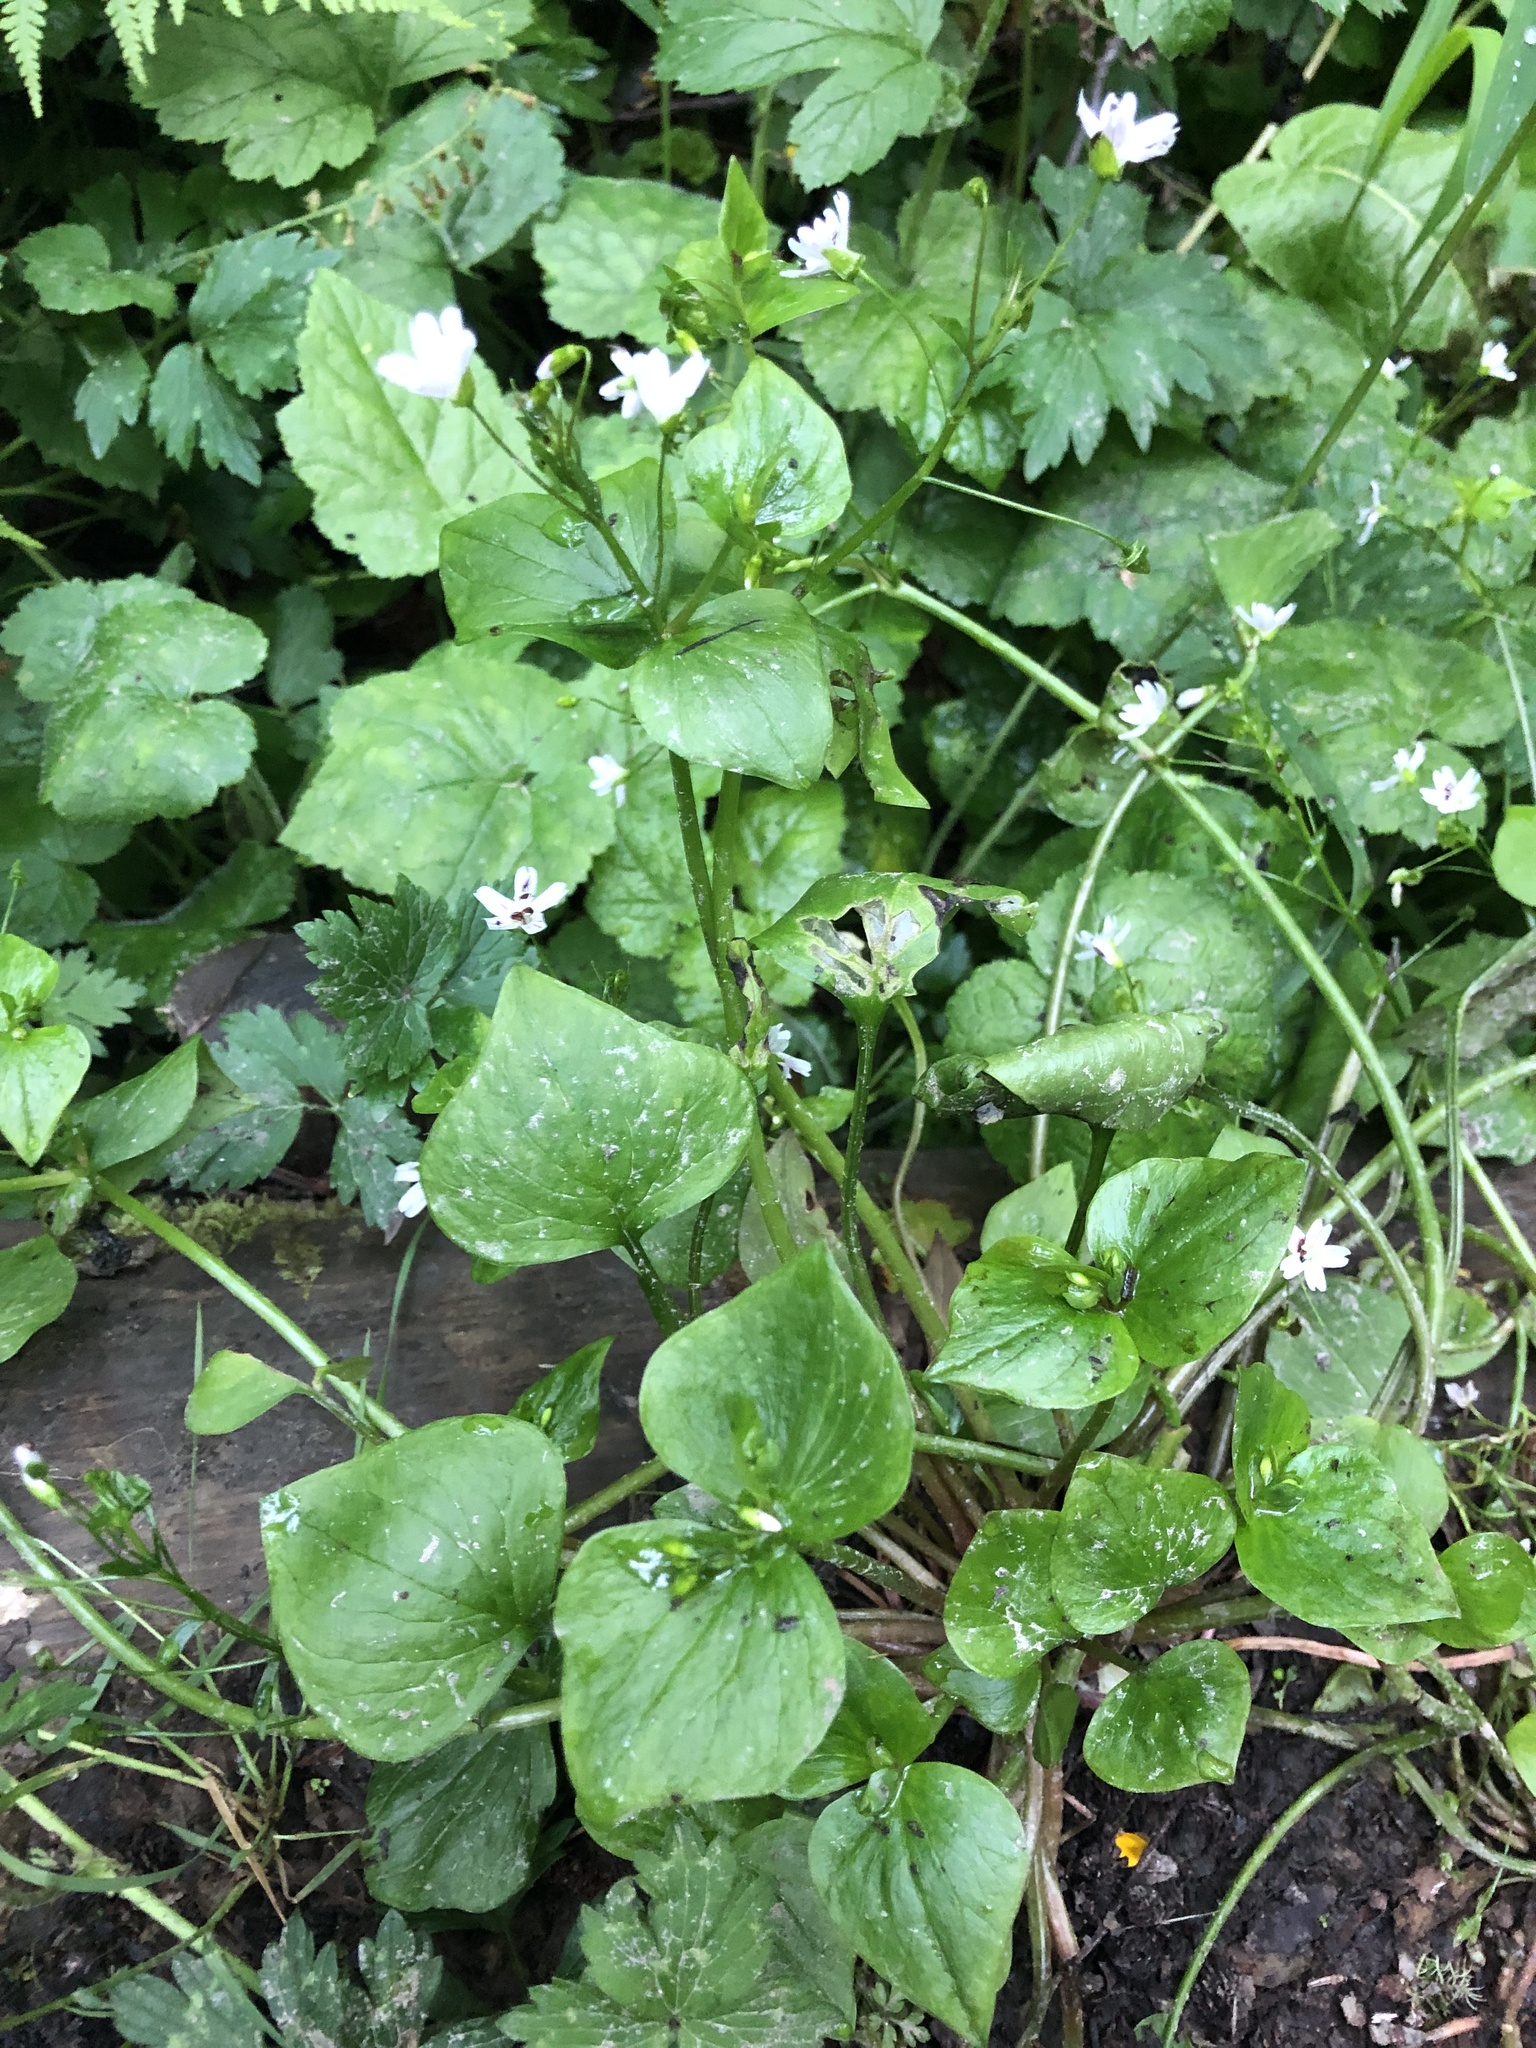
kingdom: Plantae
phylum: Tracheophyta
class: Magnoliopsida
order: Caryophyllales
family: Montiaceae
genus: Claytonia
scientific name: Claytonia sibirica
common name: Pink purslane
